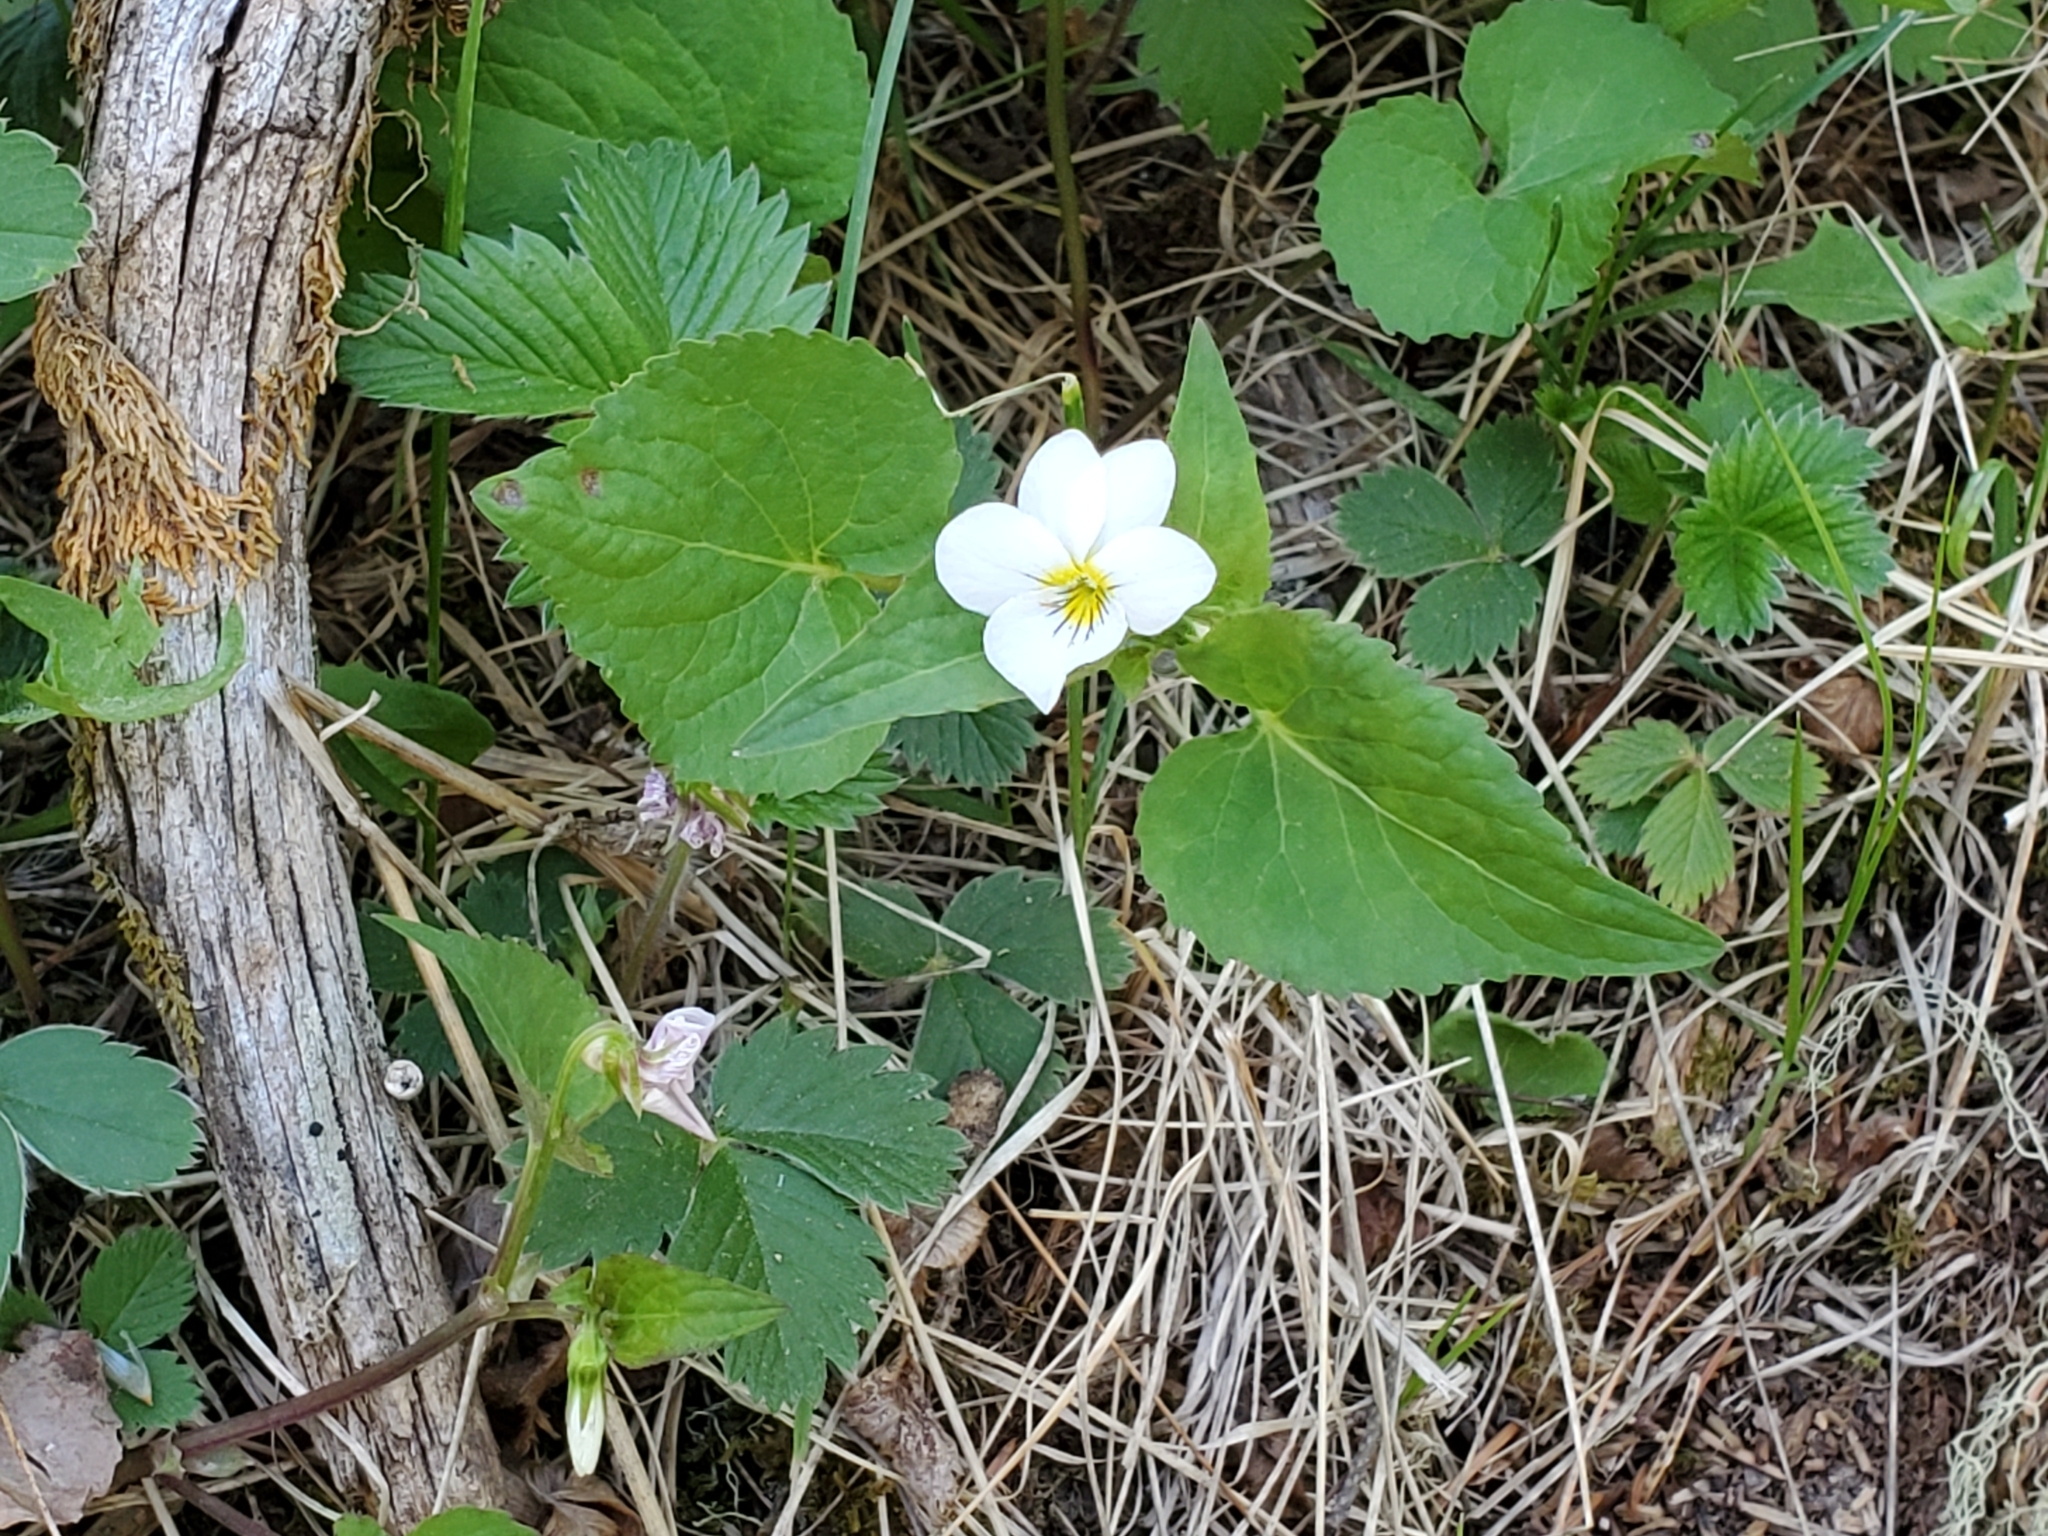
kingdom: Plantae
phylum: Tracheophyta
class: Magnoliopsida
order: Malpighiales
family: Violaceae
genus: Viola
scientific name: Viola canadensis
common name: Canada violet
